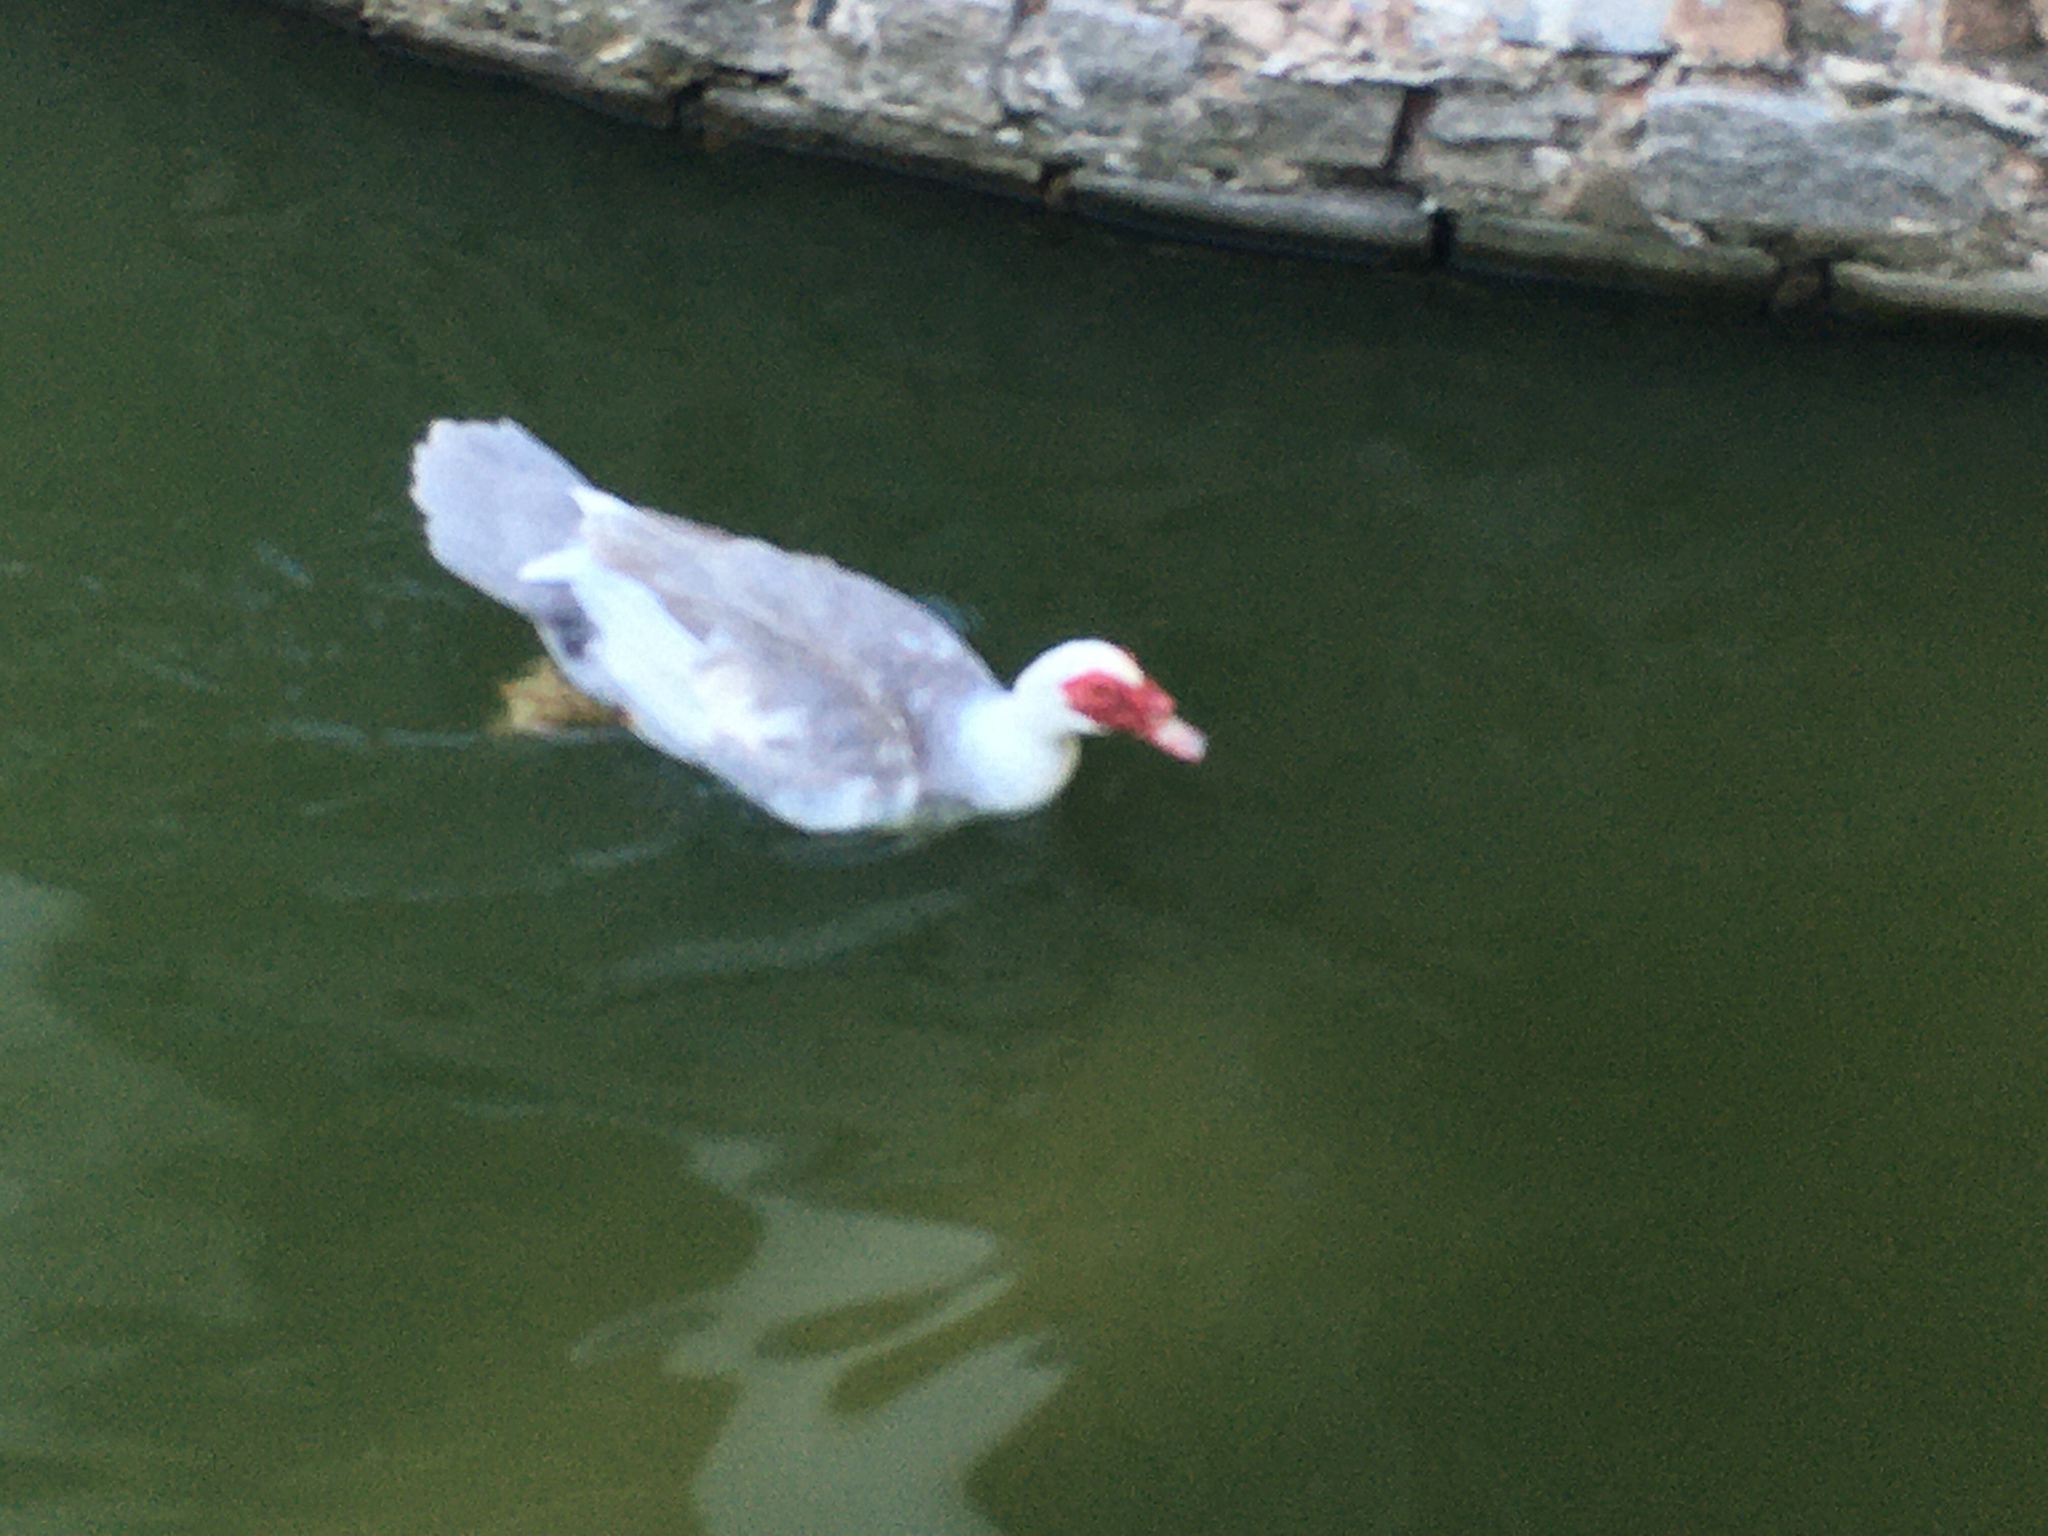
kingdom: Animalia
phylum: Chordata
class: Aves
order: Anseriformes
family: Anatidae
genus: Cairina
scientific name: Cairina moschata
